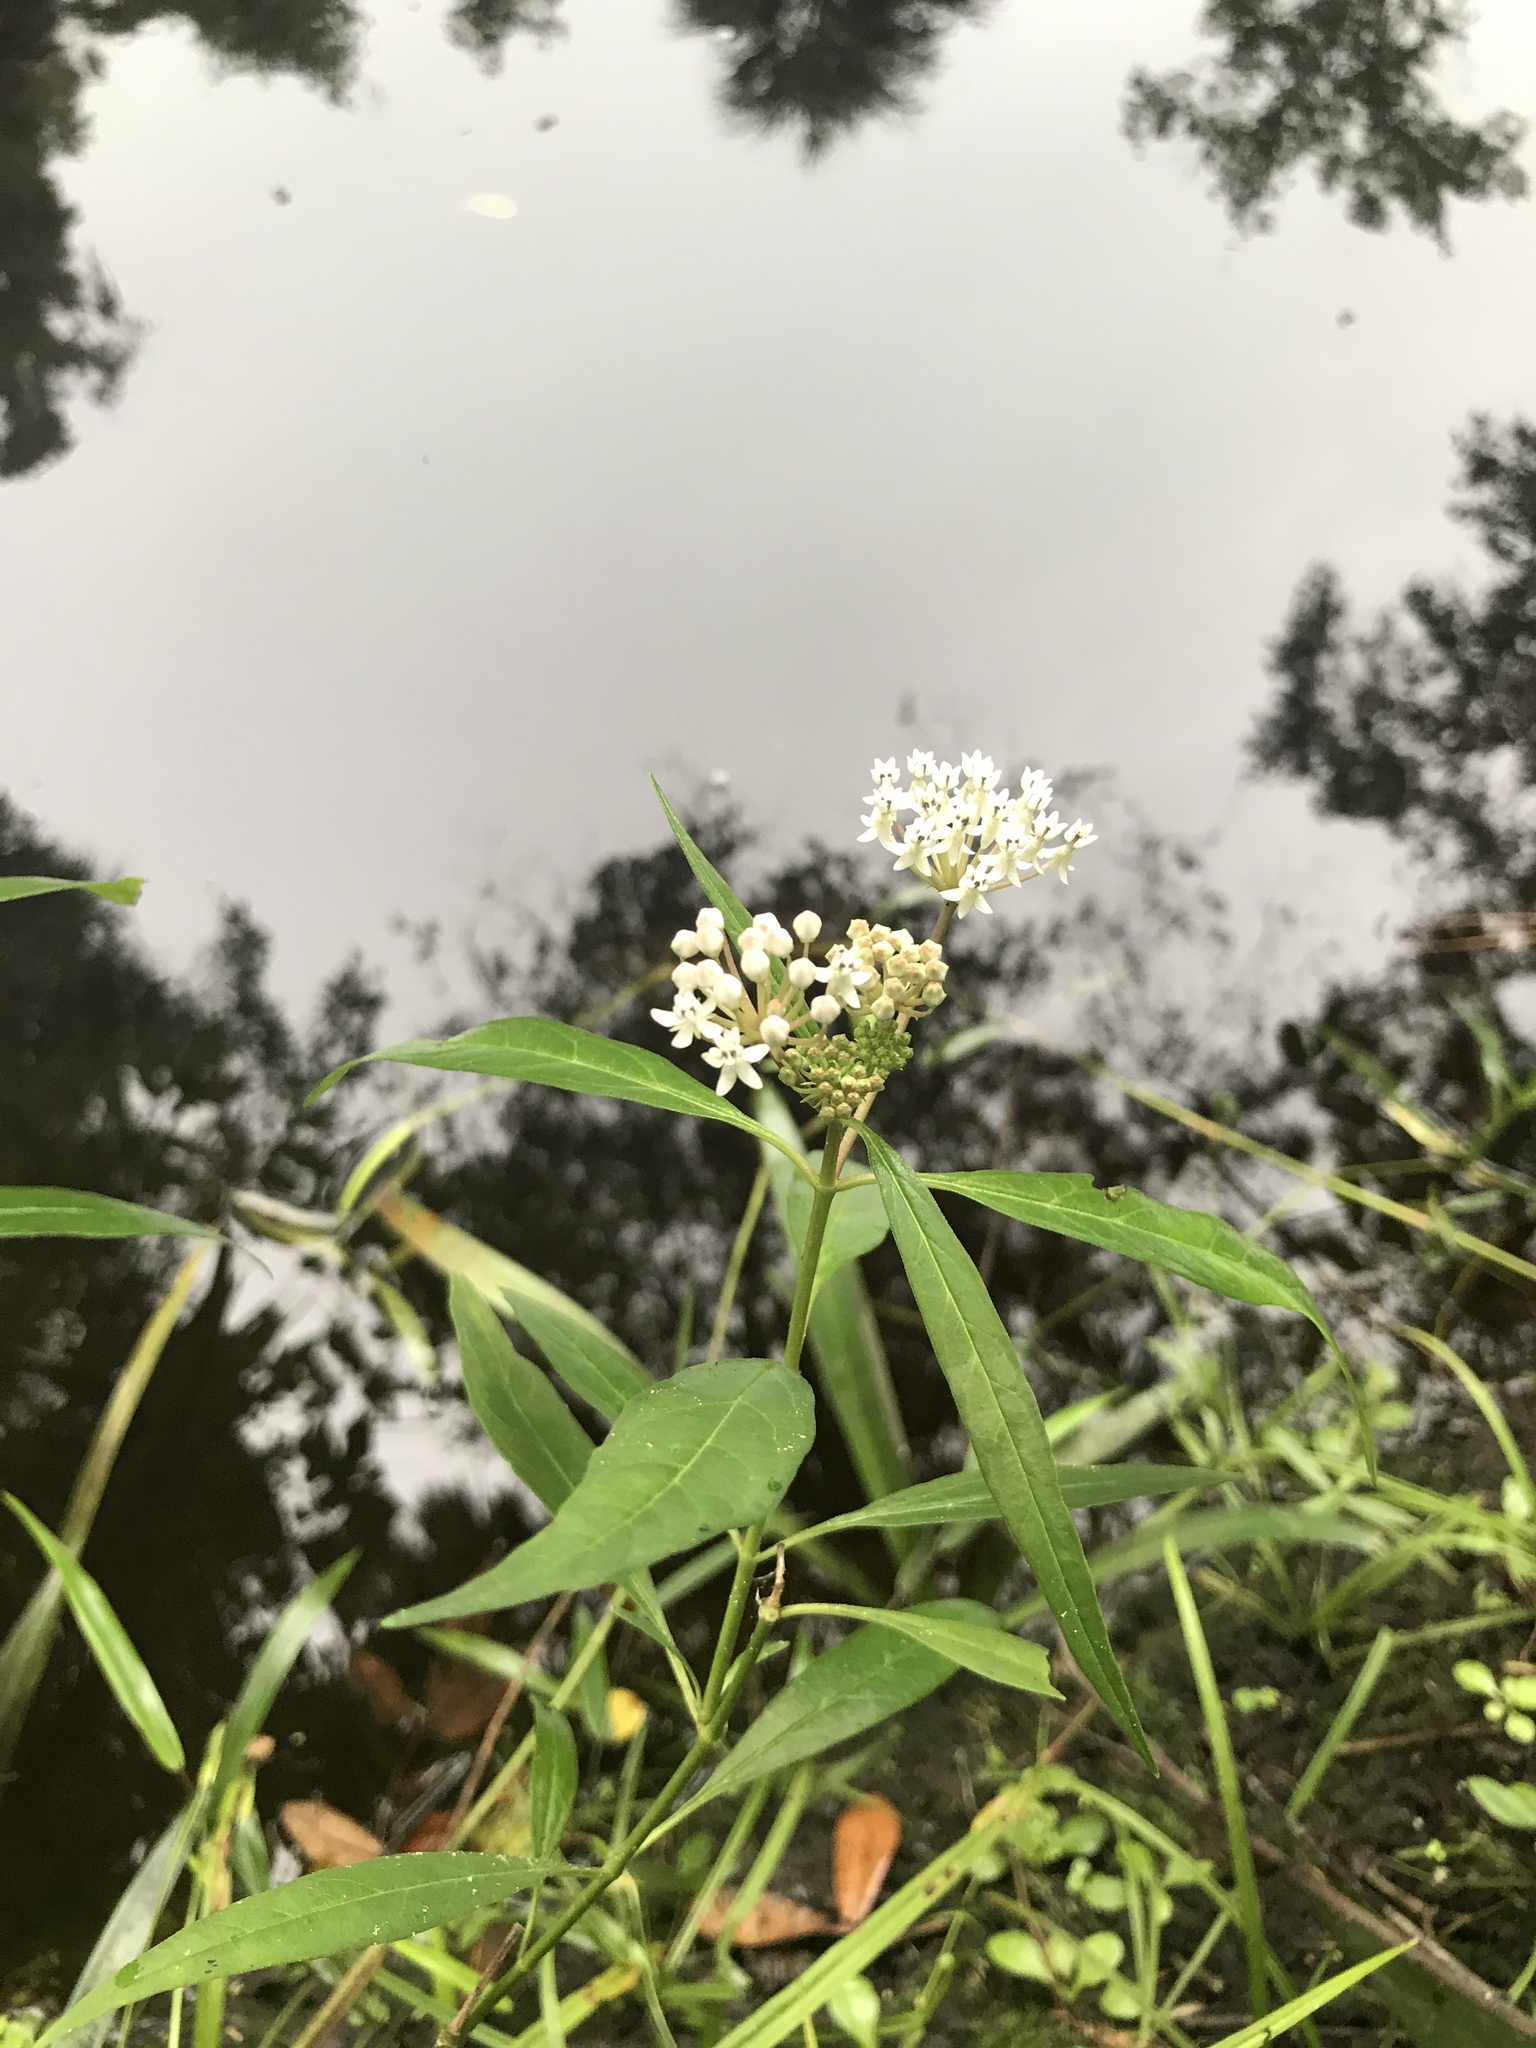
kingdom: Plantae
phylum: Tracheophyta
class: Magnoliopsida
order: Gentianales
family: Apocynaceae
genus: Asclepias
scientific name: Asclepias perennis
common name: Smooth-seed milkweed
